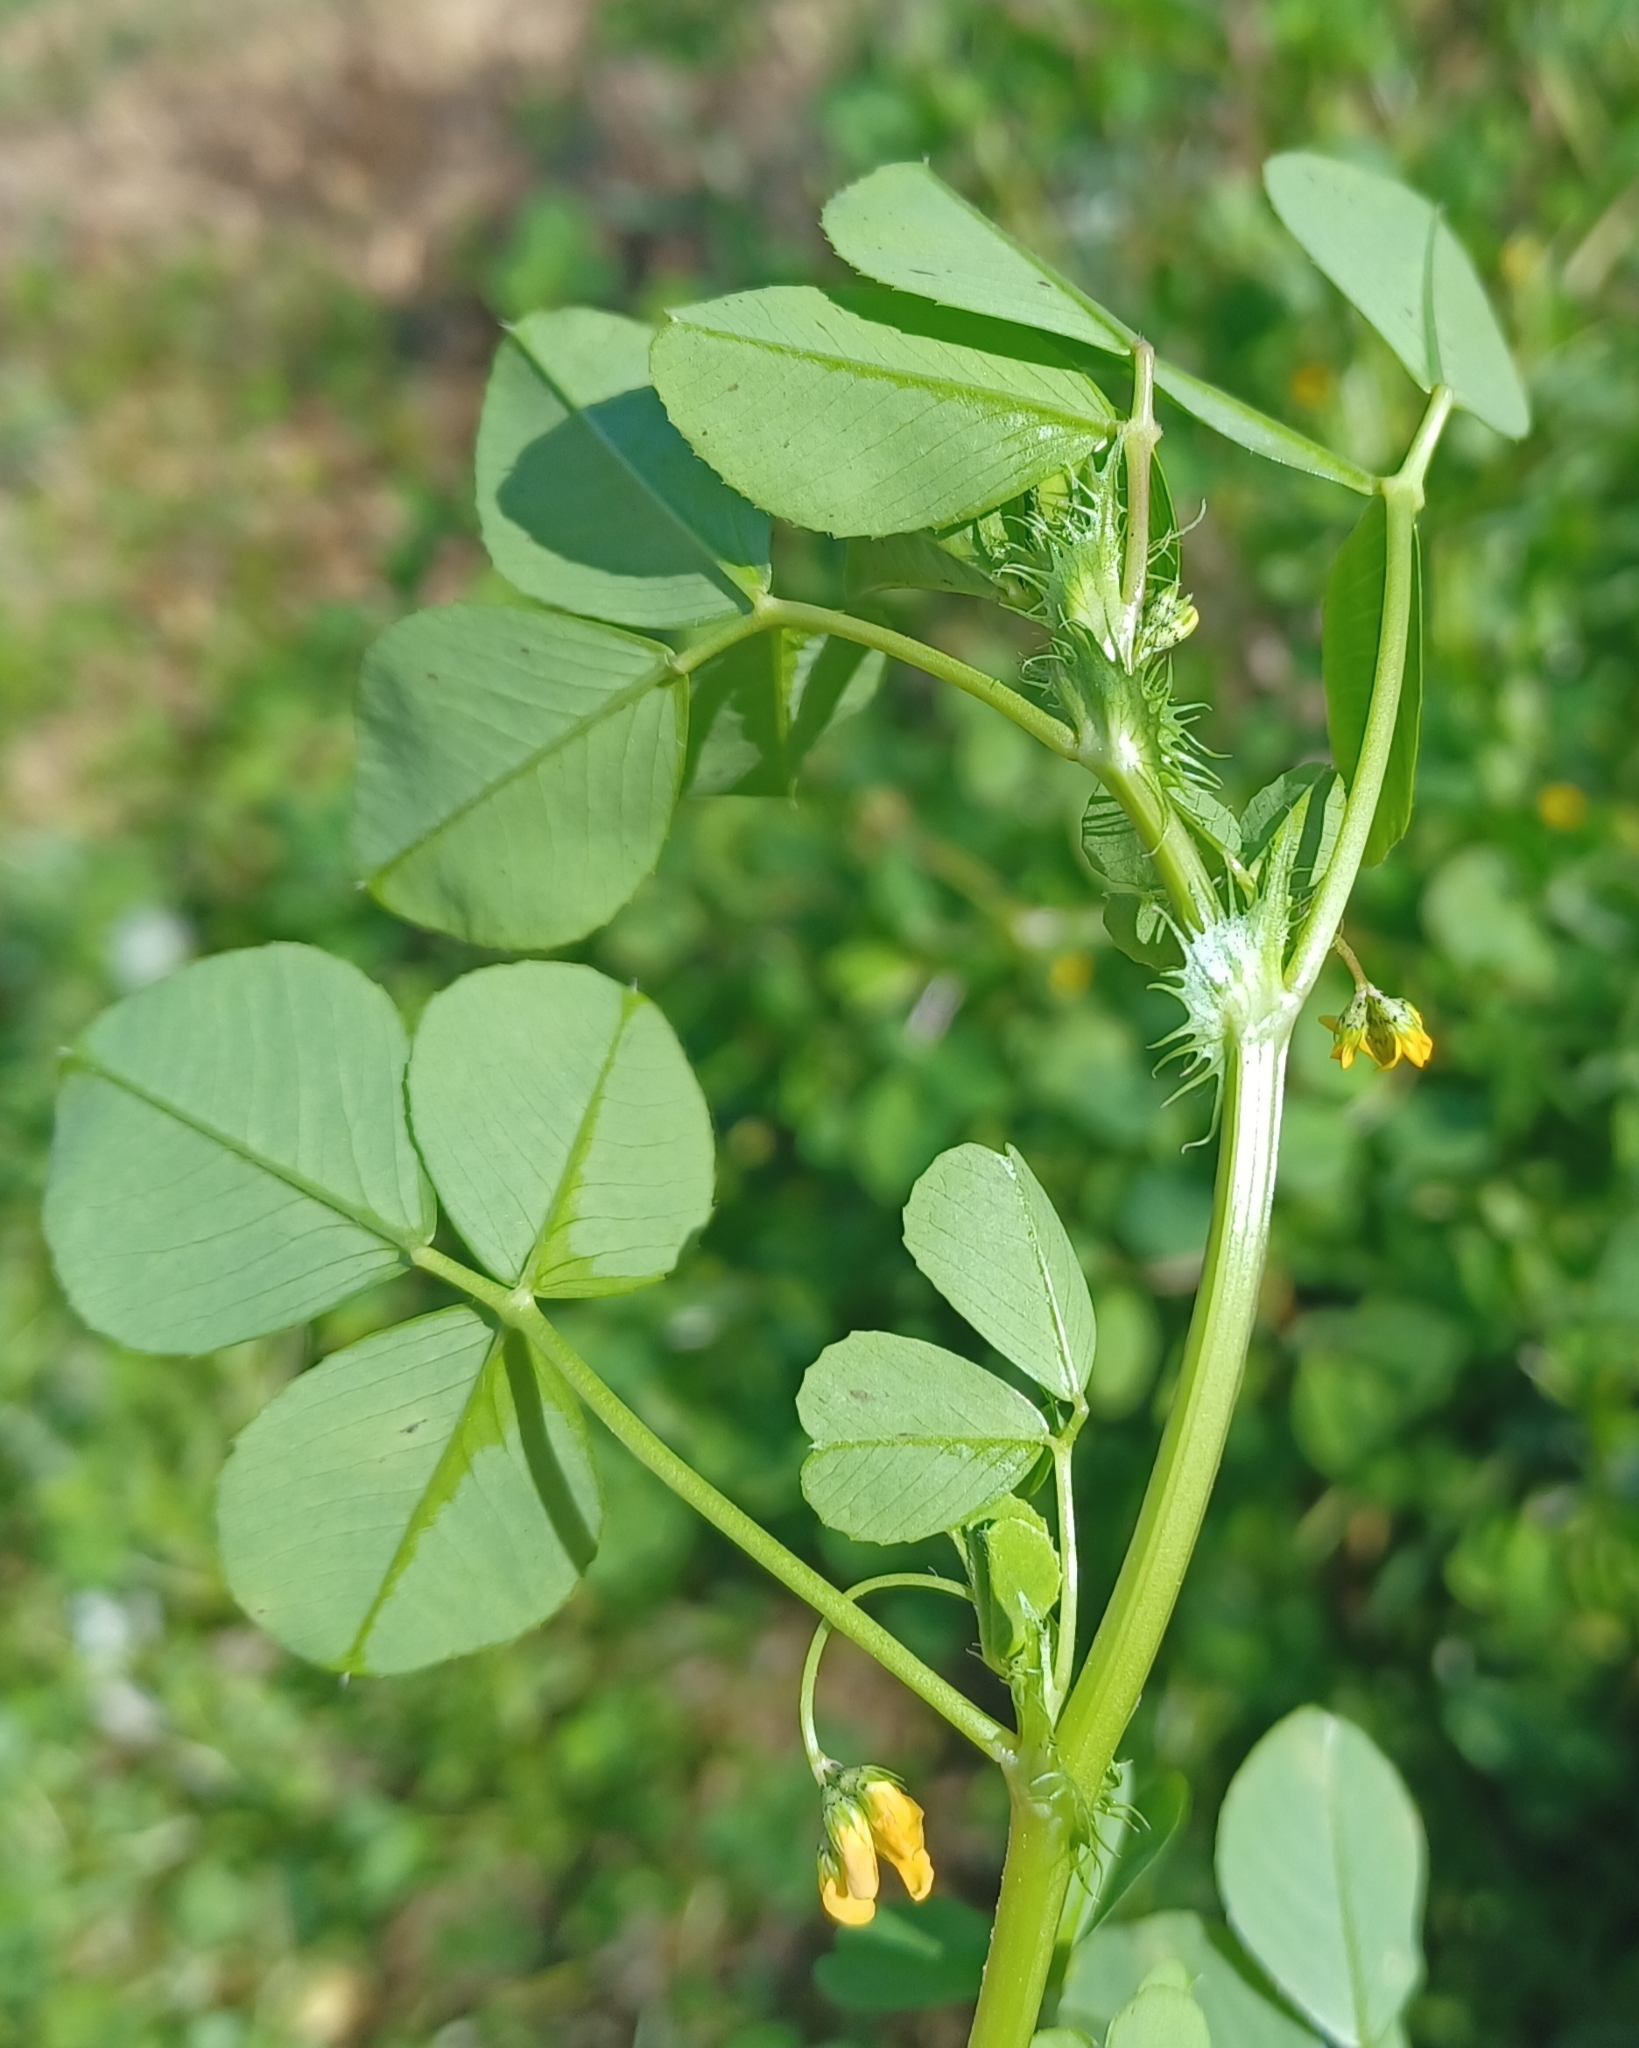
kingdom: Plantae
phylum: Tracheophyta
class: Magnoliopsida
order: Fabales
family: Fabaceae
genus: Medicago
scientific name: Medicago polymorpha
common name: Burclover
